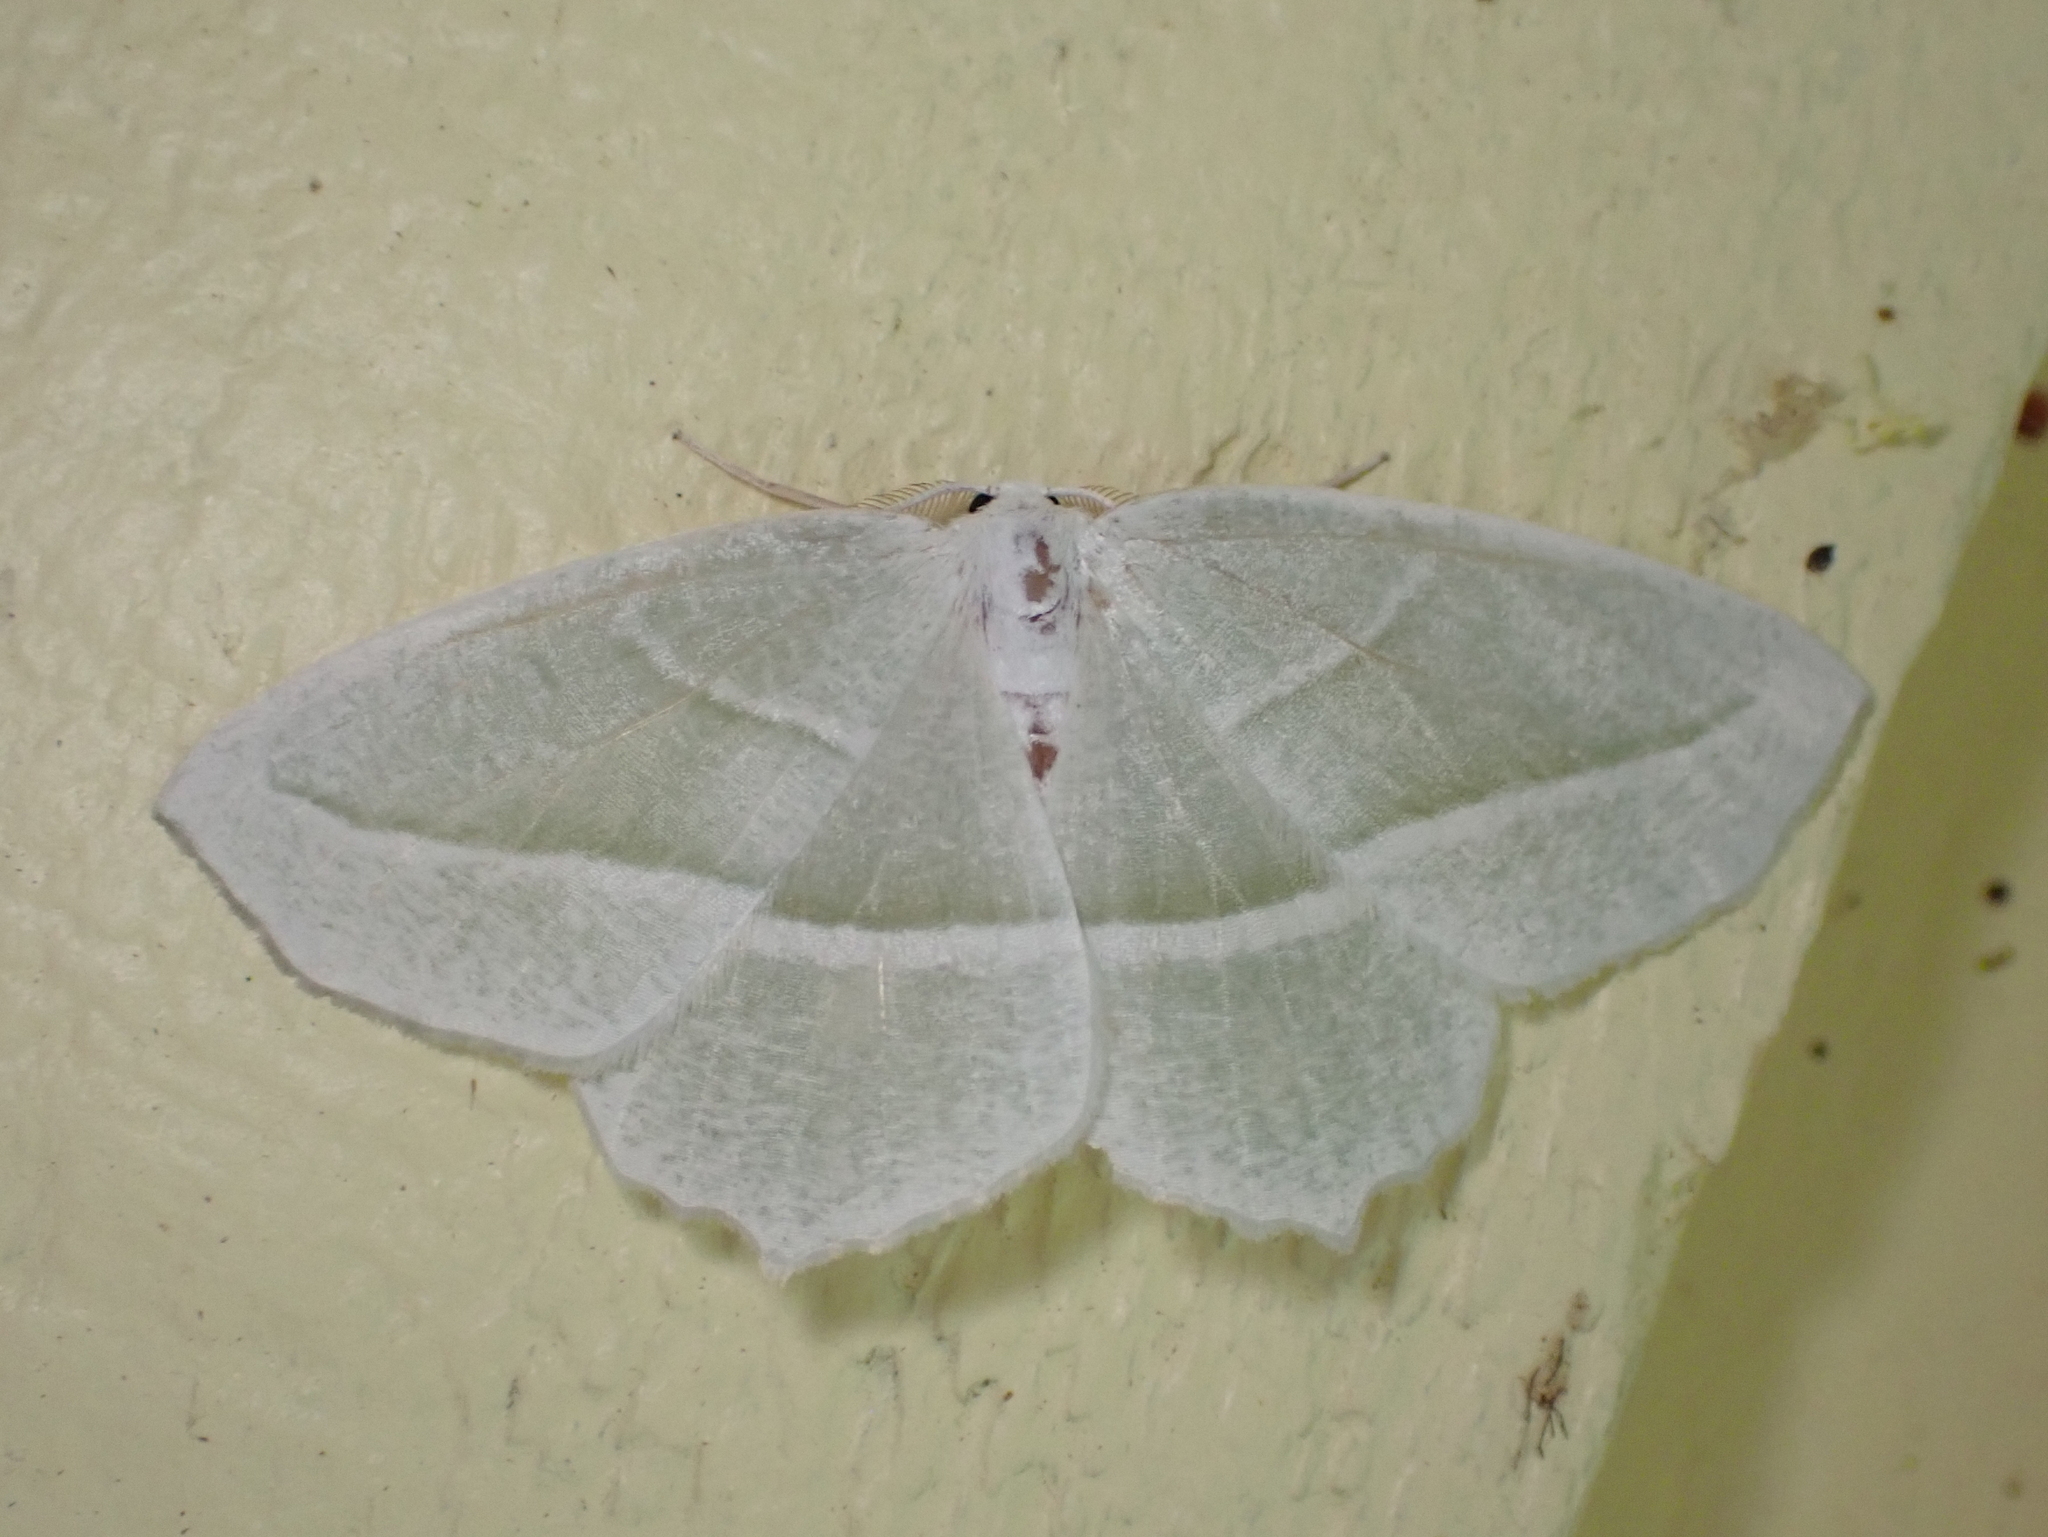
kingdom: Animalia
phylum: Arthropoda
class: Insecta
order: Lepidoptera
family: Geometridae
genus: Campaea
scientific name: Campaea perlata
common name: Fringed looper
